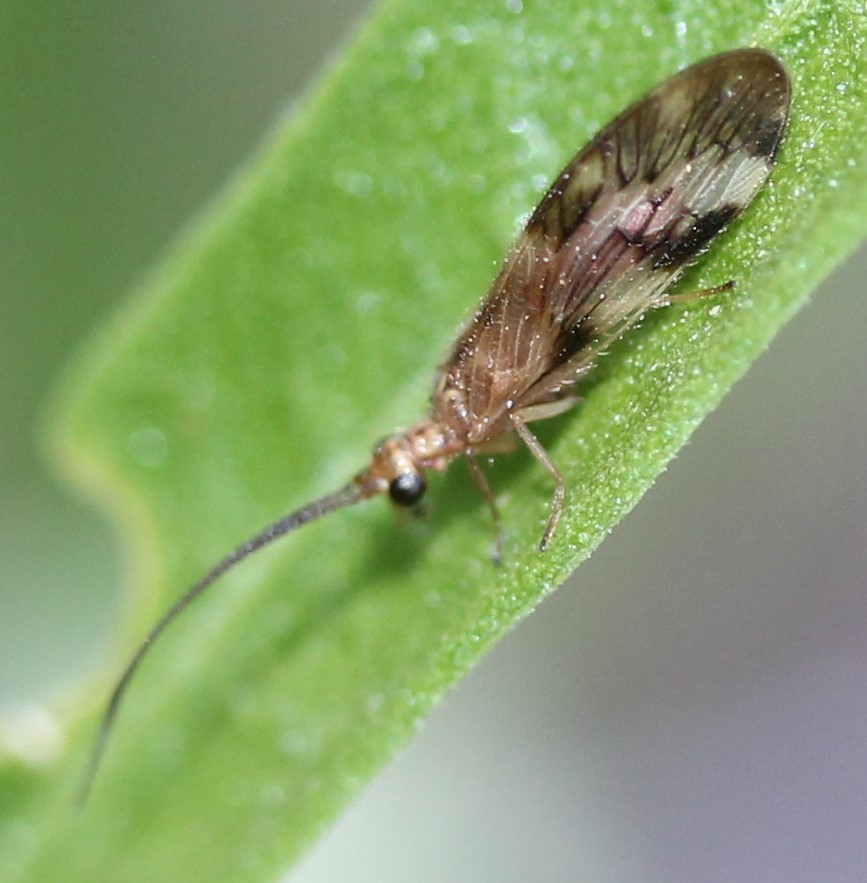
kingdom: Animalia
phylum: Arthropoda
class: Insecta
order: Neuroptera
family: Sisyridae
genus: Climacia
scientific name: Climacia californica
